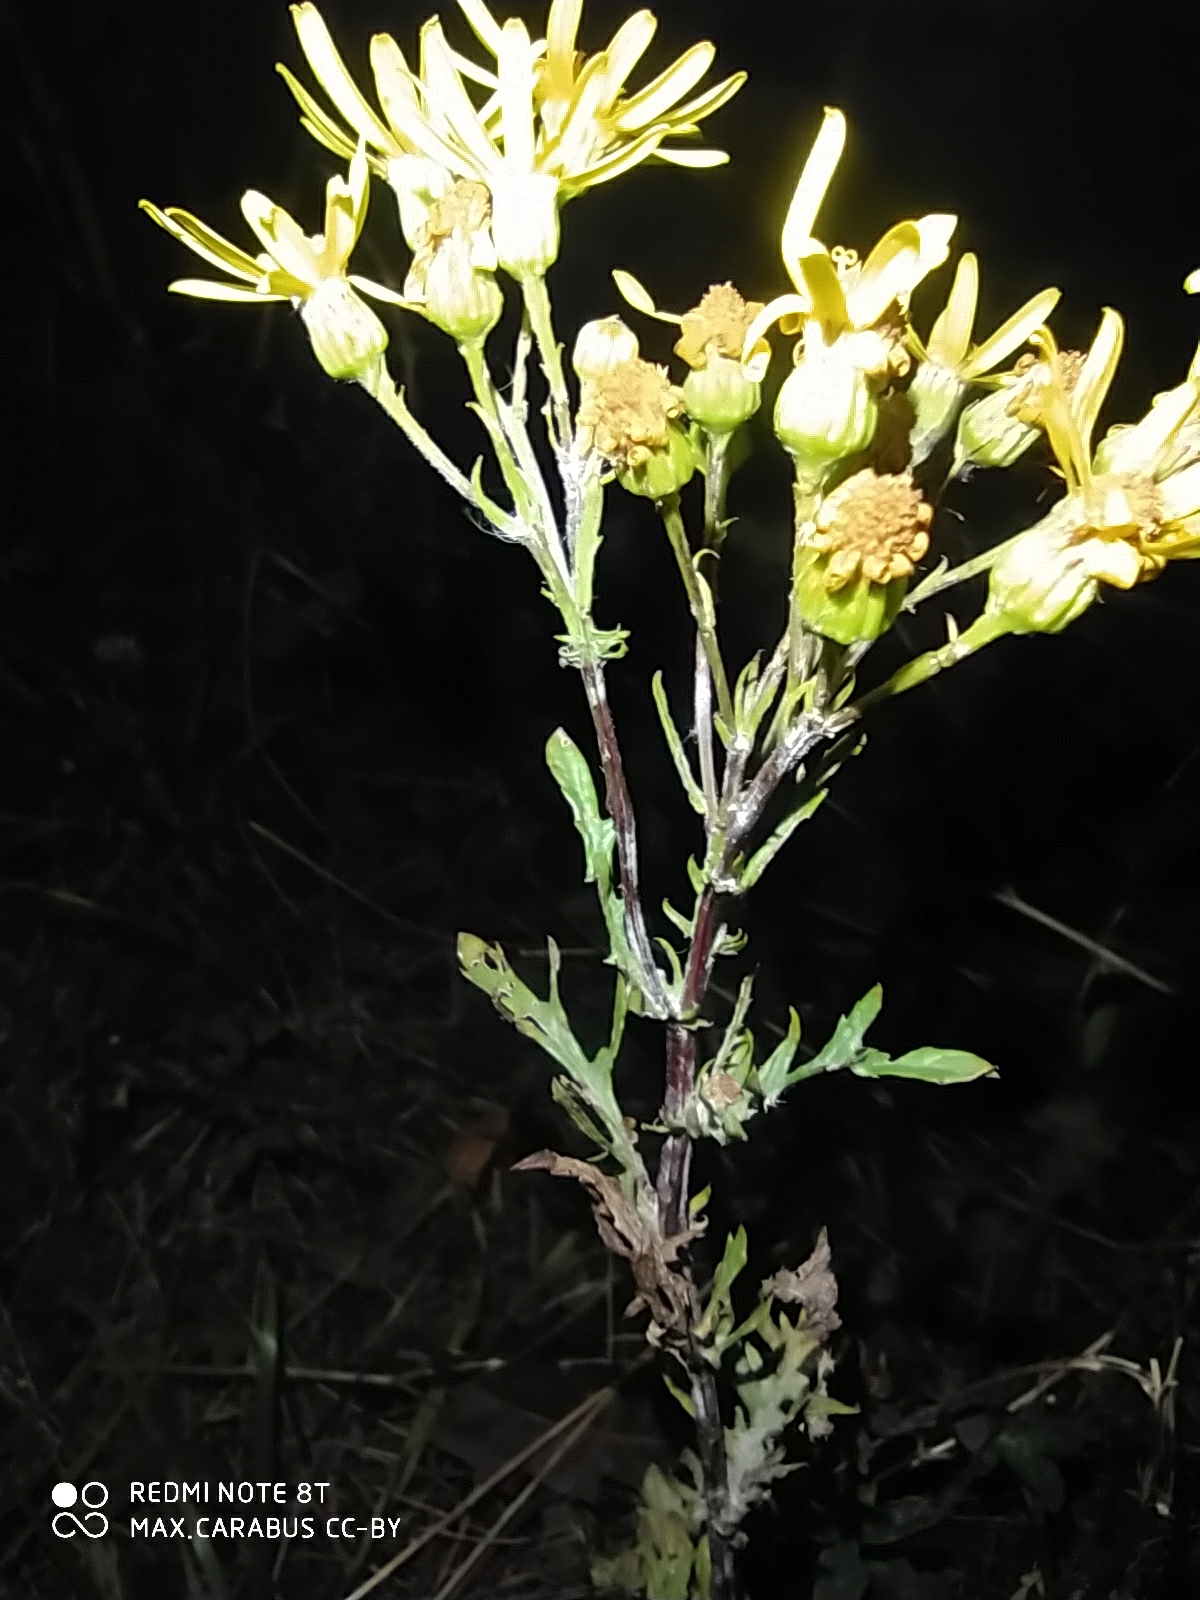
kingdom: Plantae
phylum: Tracheophyta
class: Magnoliopsida
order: Asterales
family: Asteraceae
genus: Jacobaea
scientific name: Jacobaea vulgaris
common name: Stinking willie
